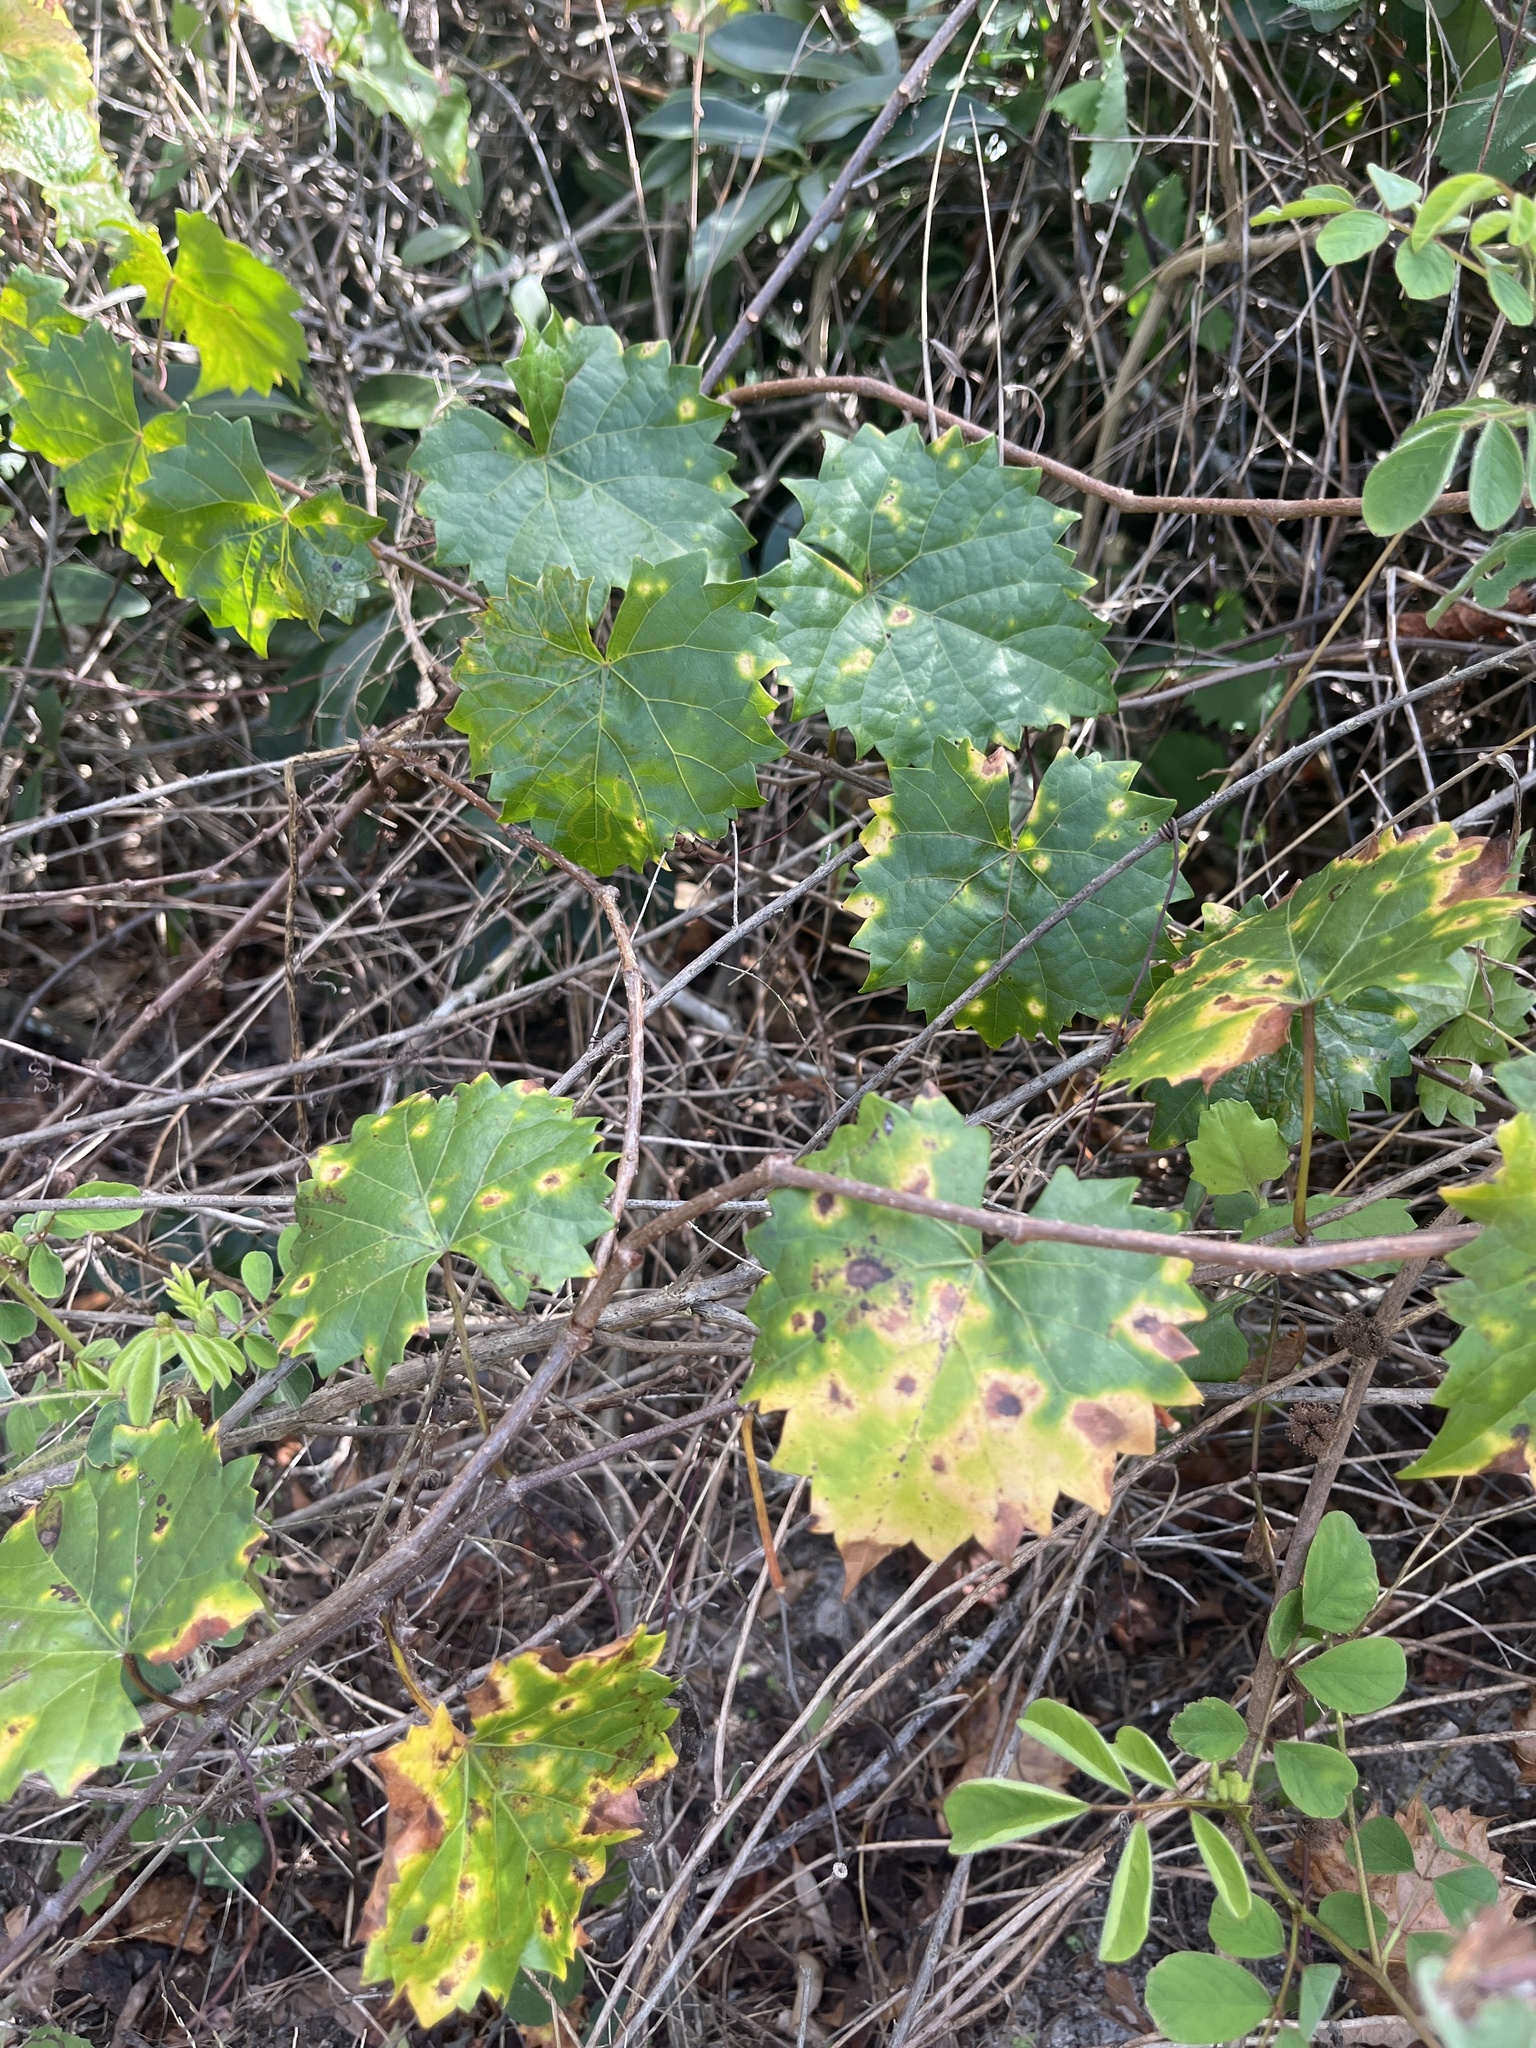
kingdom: Plantae
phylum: Tracheophyta
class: Magnoliopsida
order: Vitales
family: Vitaceae
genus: Vitis
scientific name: Vitis rotundifolia
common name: Muscadine grape
